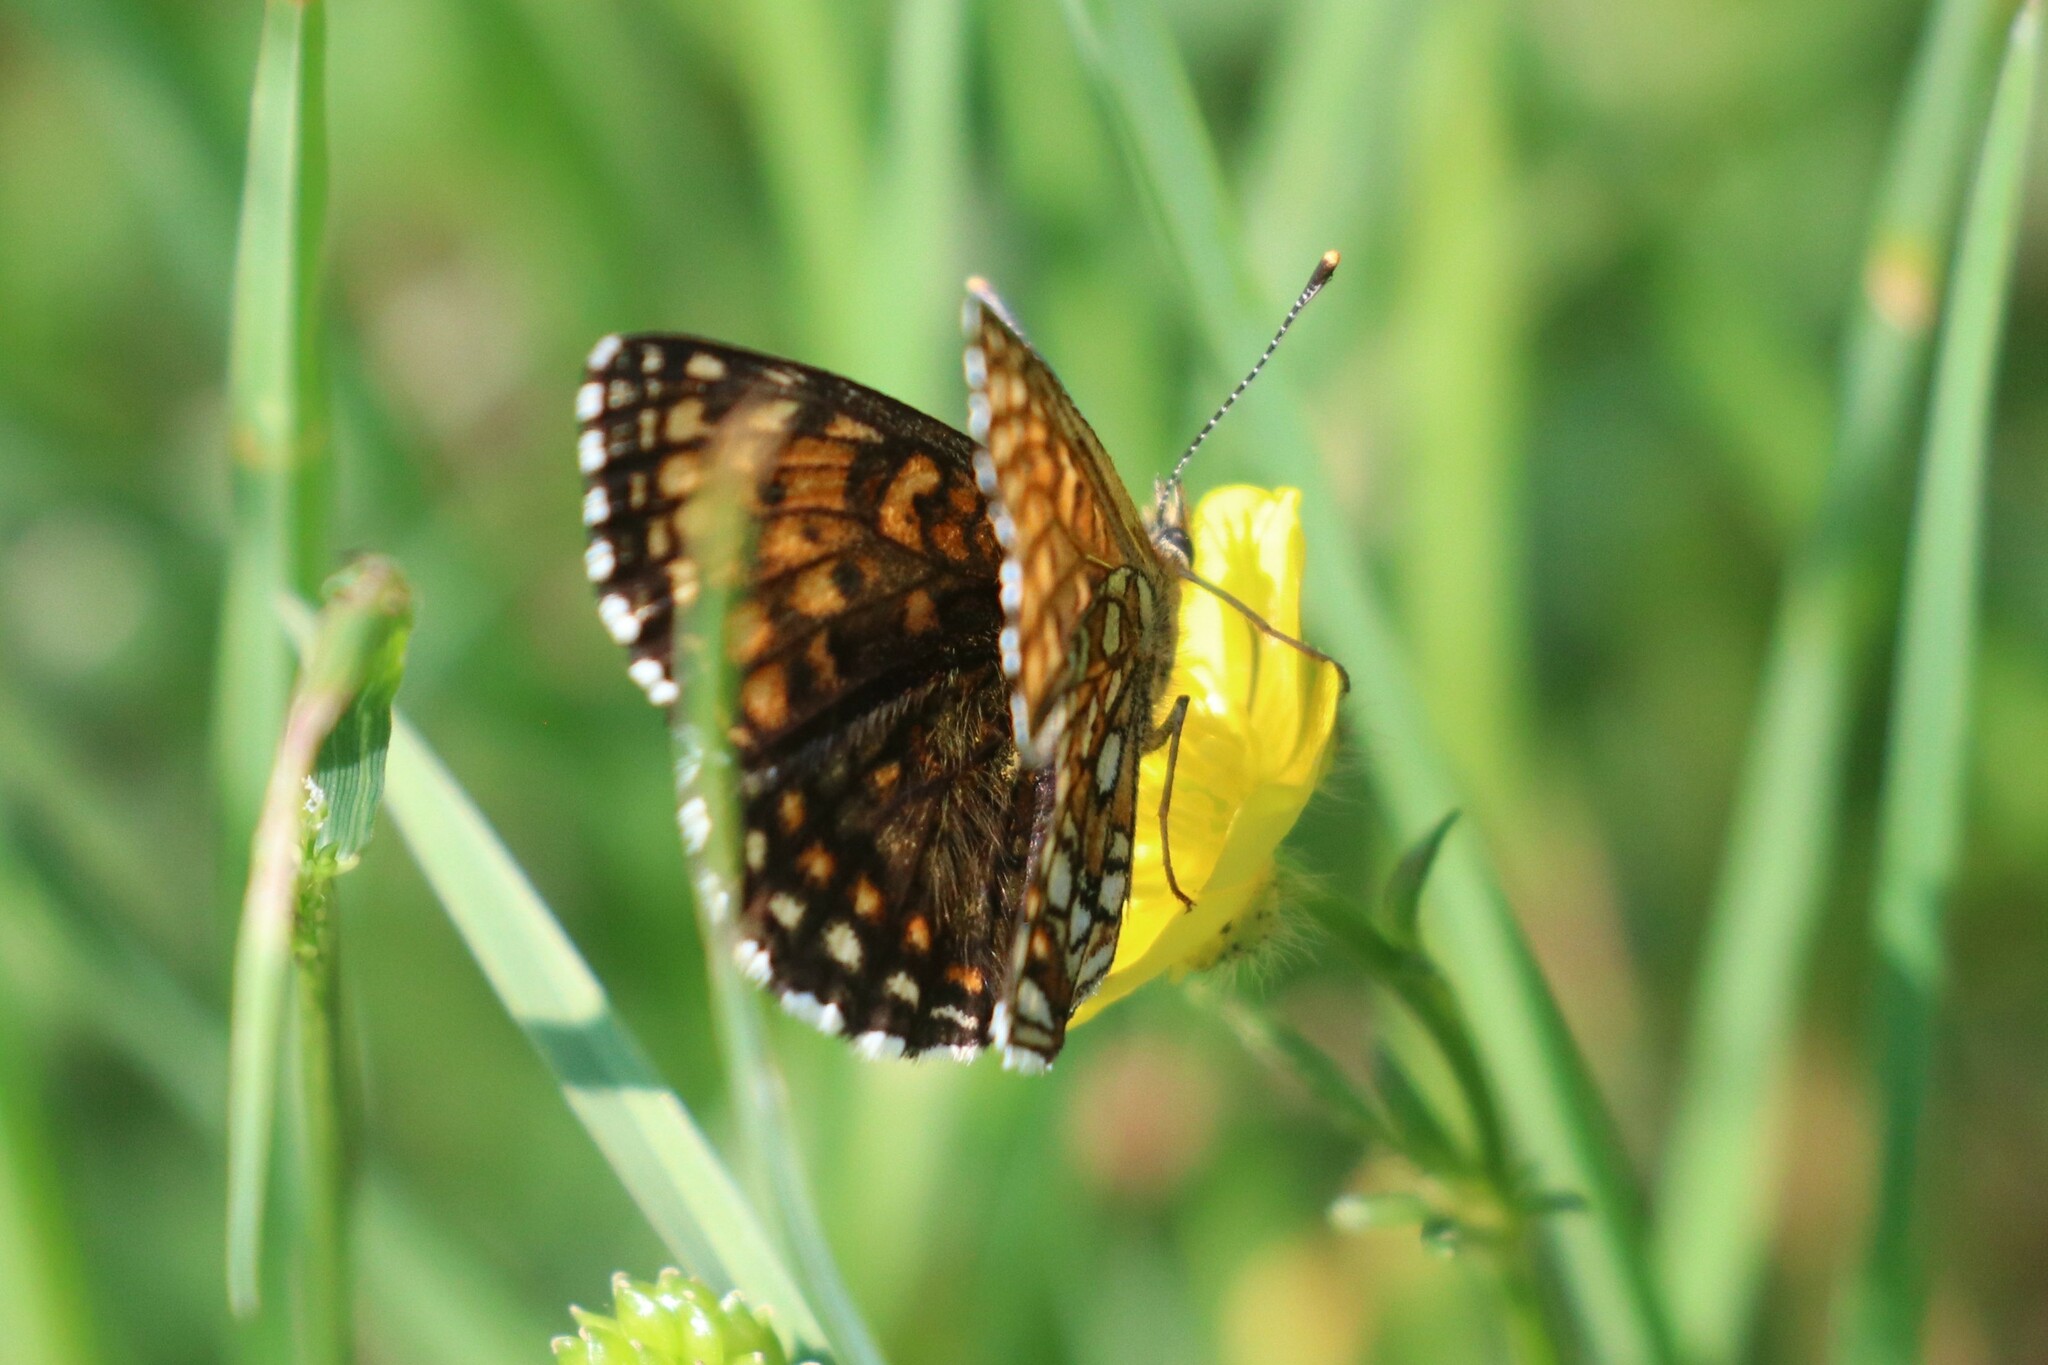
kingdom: Animalia
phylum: Arthropoda
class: Insecta
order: Lepidoptera
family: Nymphalidae
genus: Melitaea
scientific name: Melitaea diamina
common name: False heath fritillary
